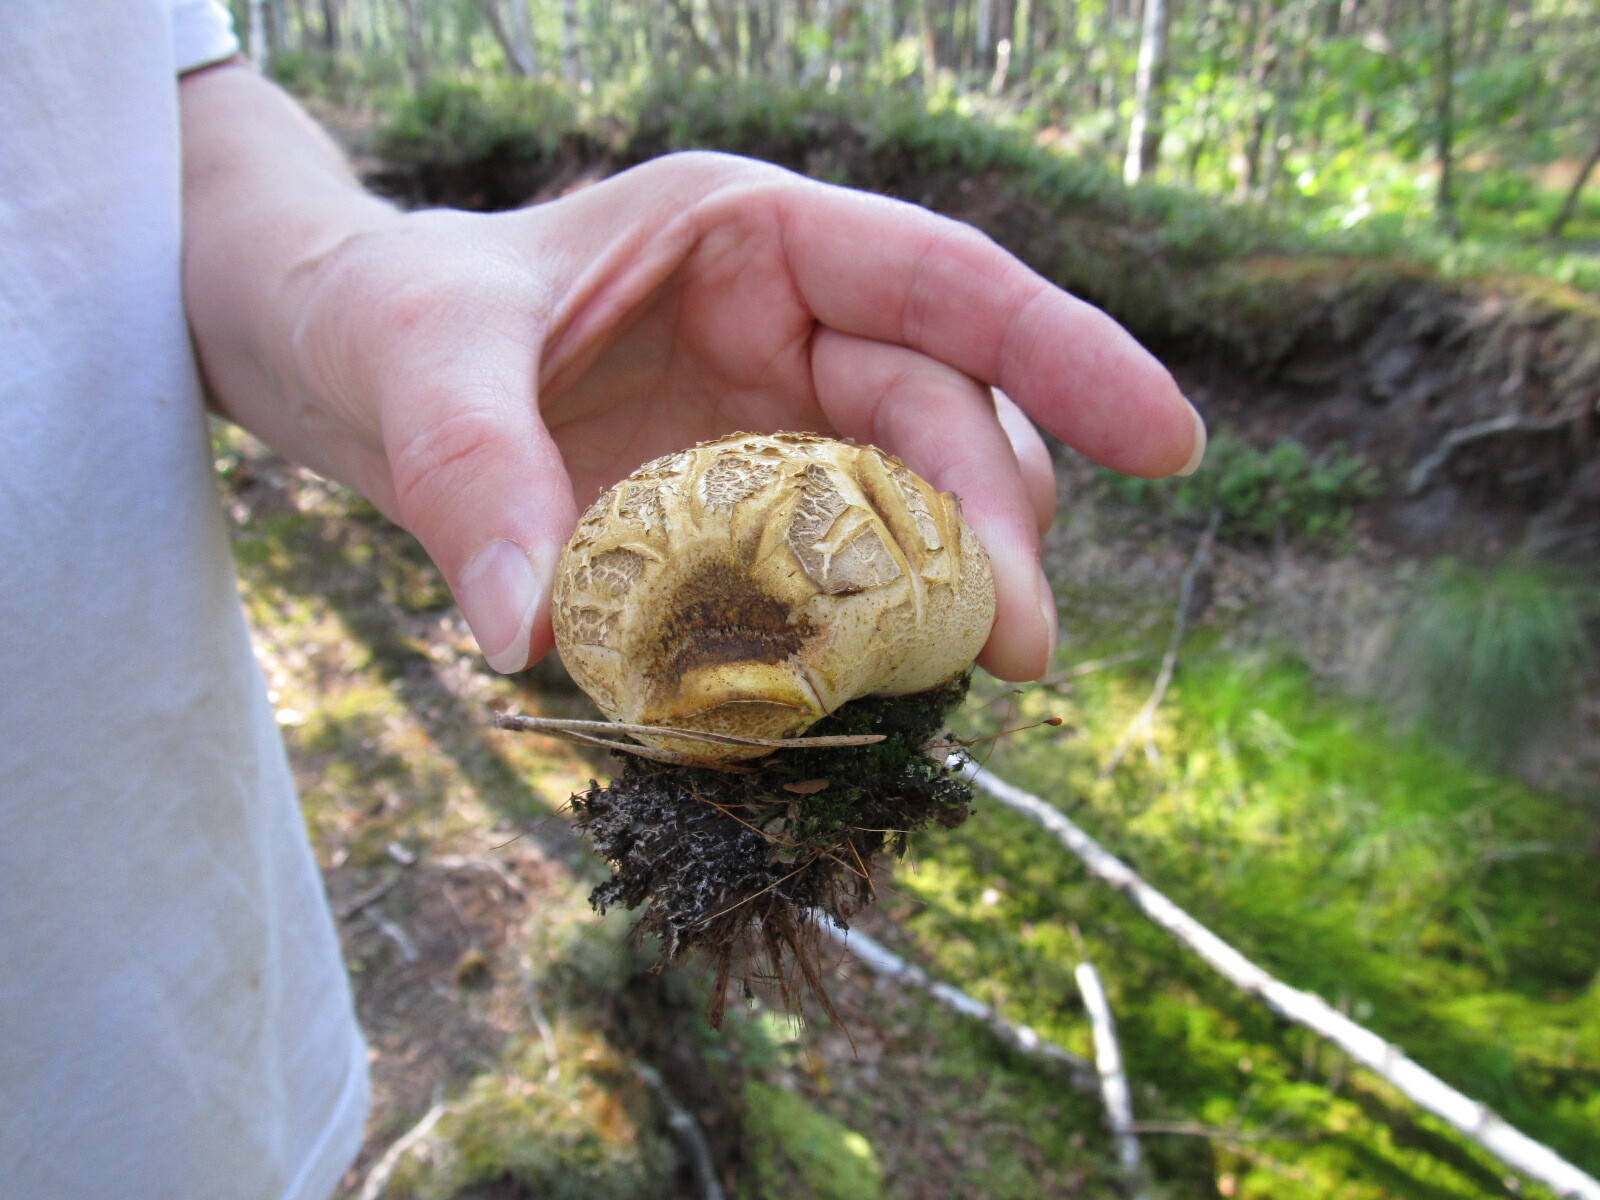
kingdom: Fungi
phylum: Basidiomycota
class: Agaricomycetes
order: Boletales
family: Sclerodermataceae
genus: Scleroderma
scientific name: Scleroderma citrinum
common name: Common earthball
